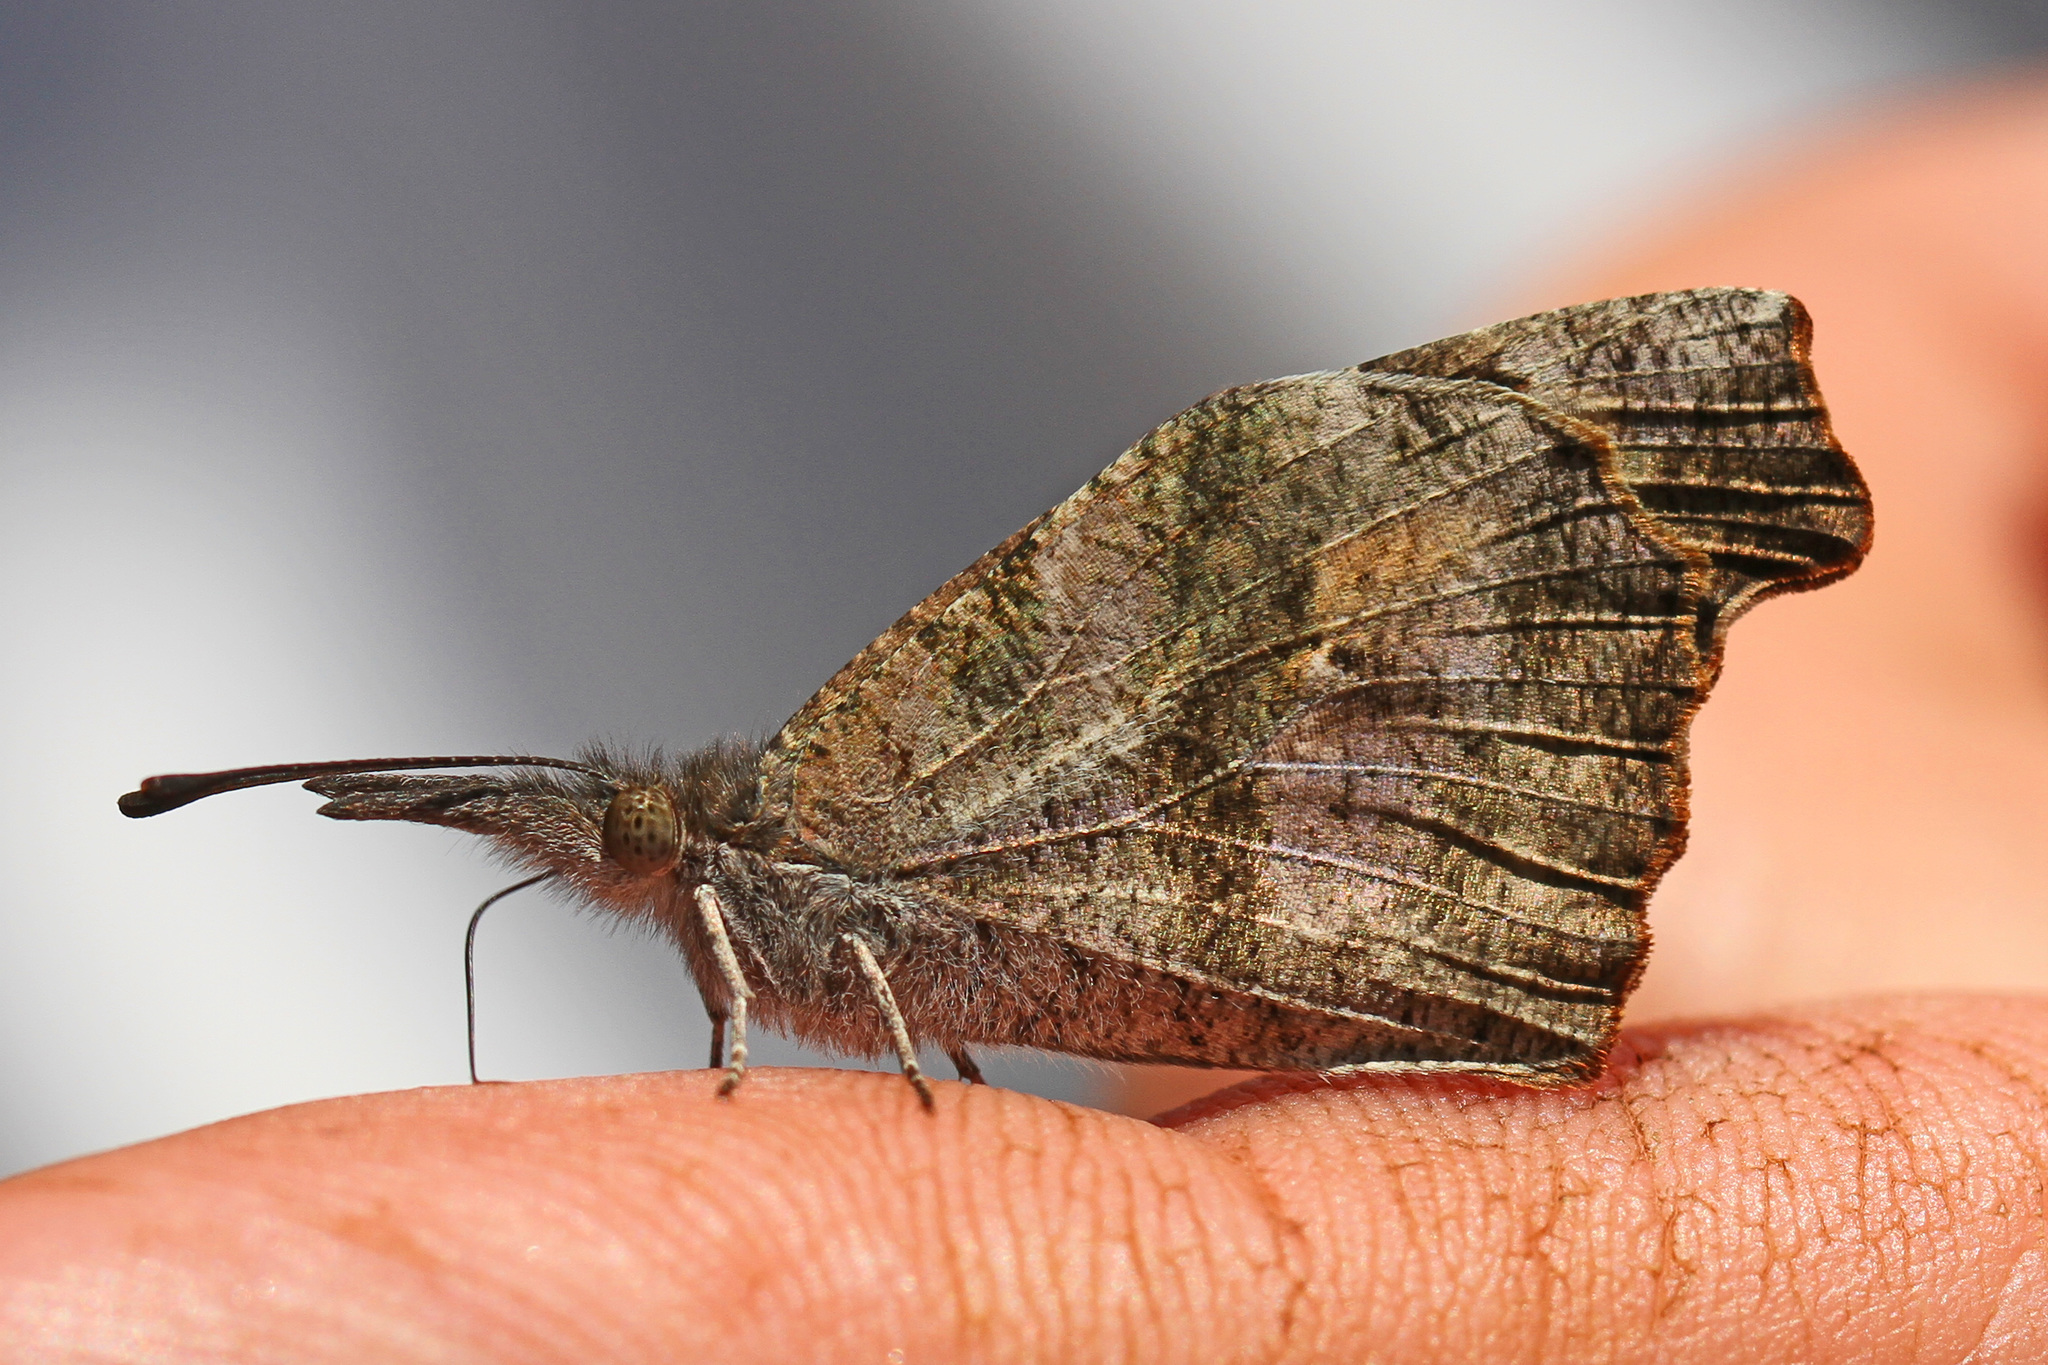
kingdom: Animalia
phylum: Arthropoda
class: Insecta
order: Lepidoptera
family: Nymphalidae
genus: Libytheana
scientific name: Libytheana carinenta
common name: American snout
